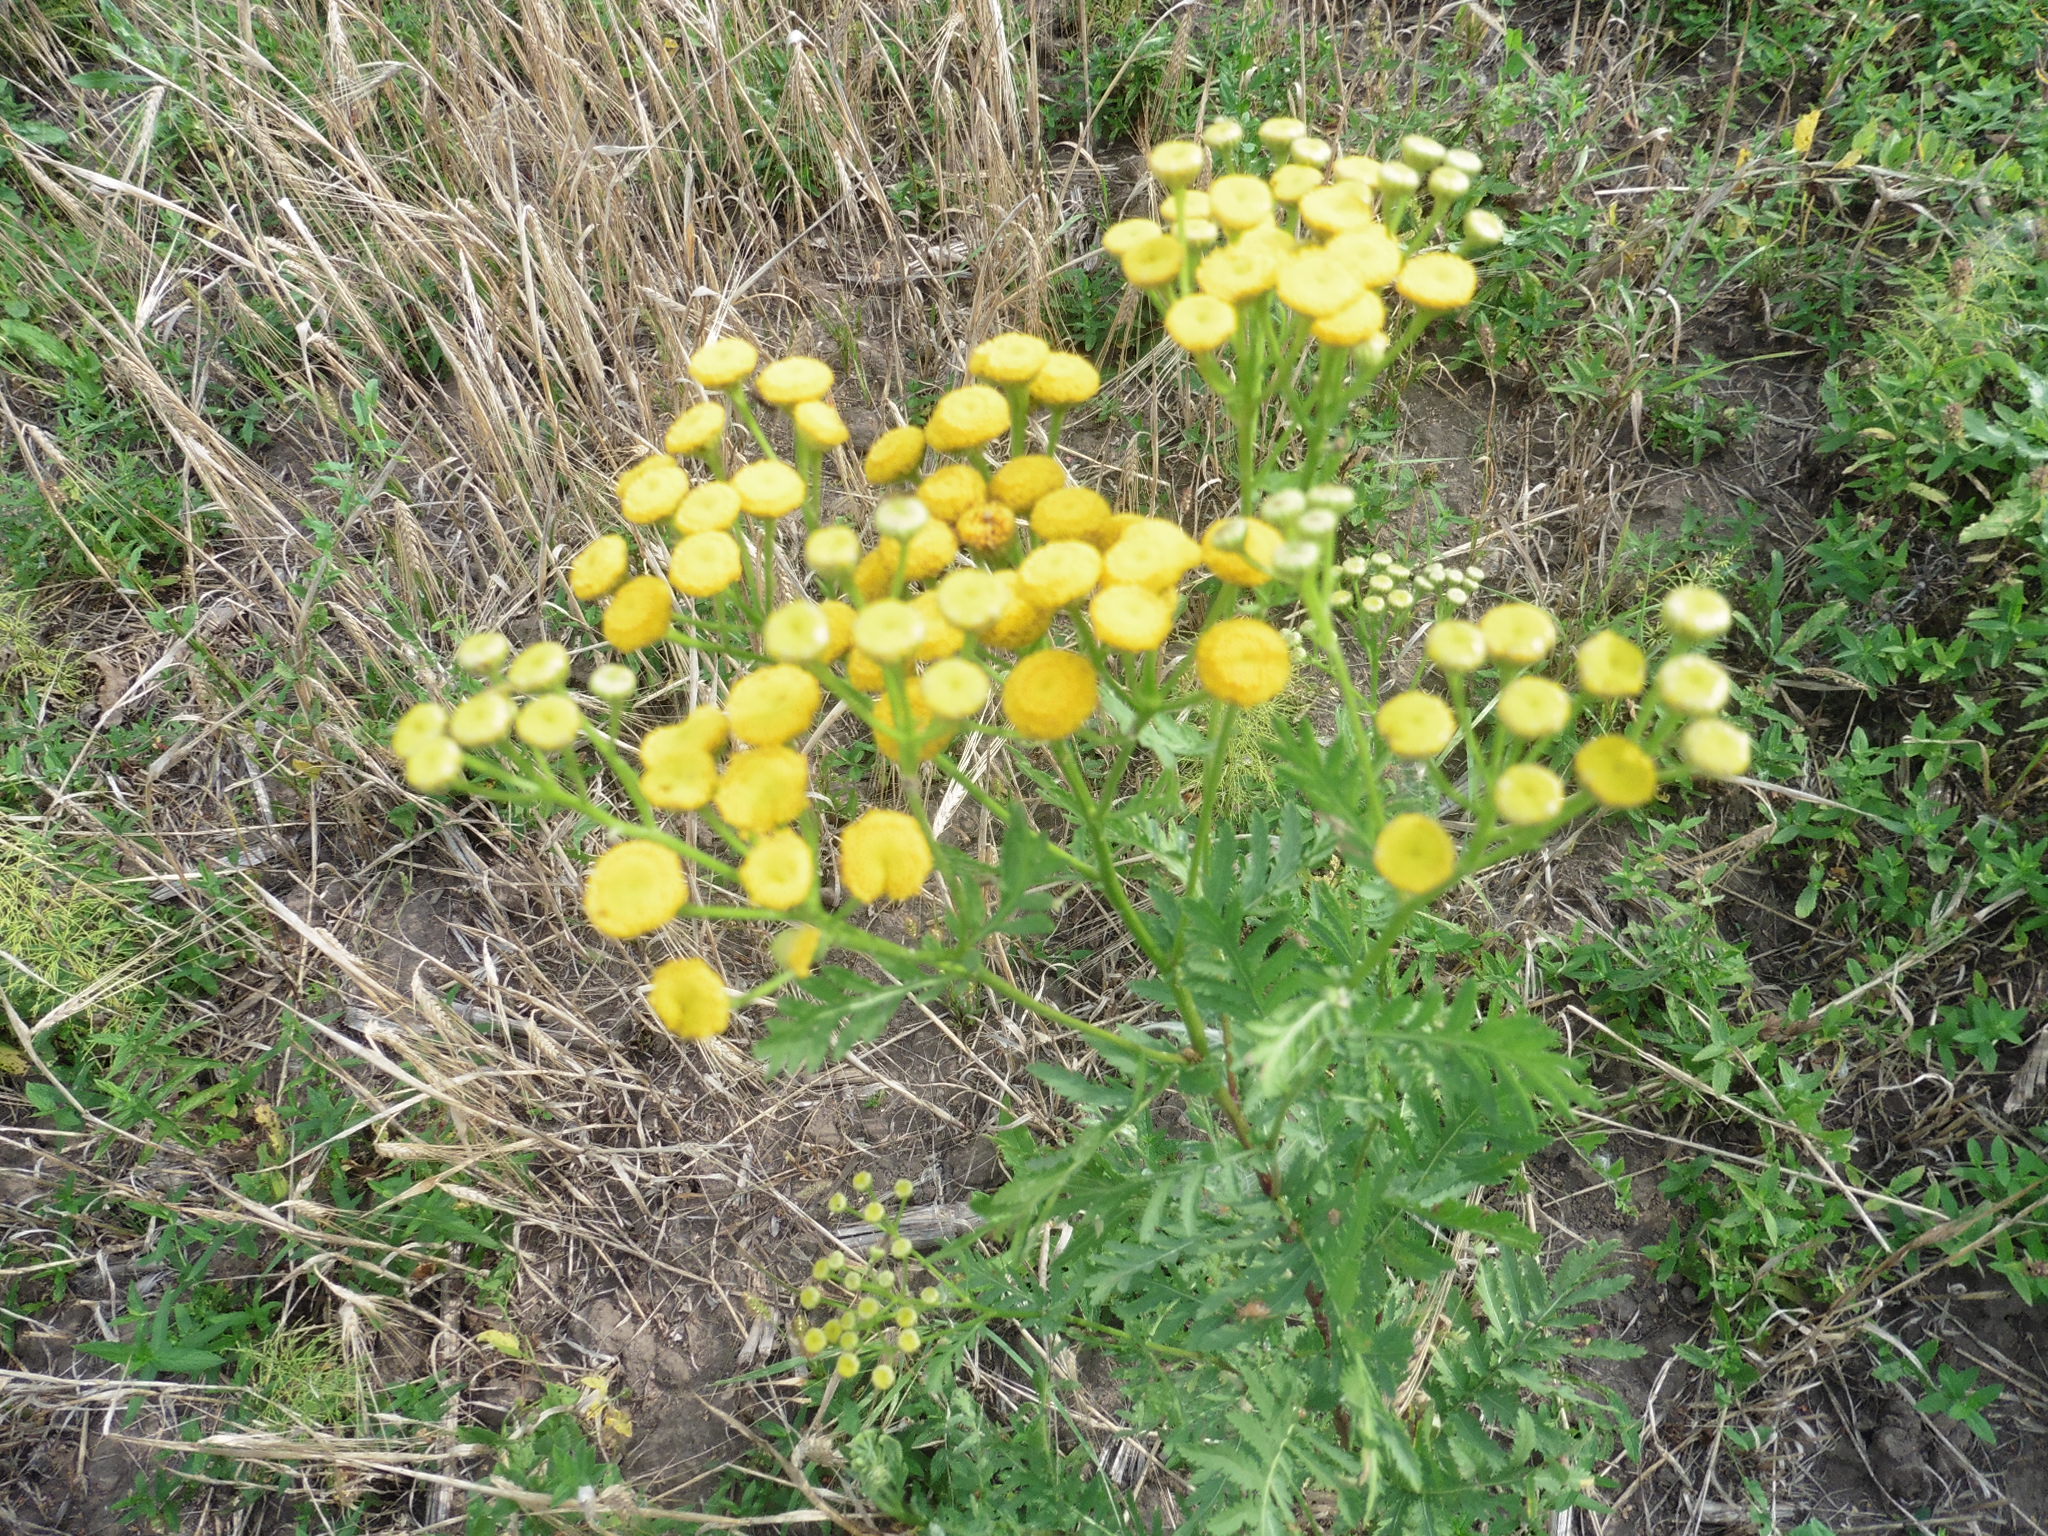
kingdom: Plantae
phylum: Tracheophyta
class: Magnoliopsida
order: Asterales
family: Asteraceae
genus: Tanacetum
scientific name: Tanacetum vulgare
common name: Common tansy
